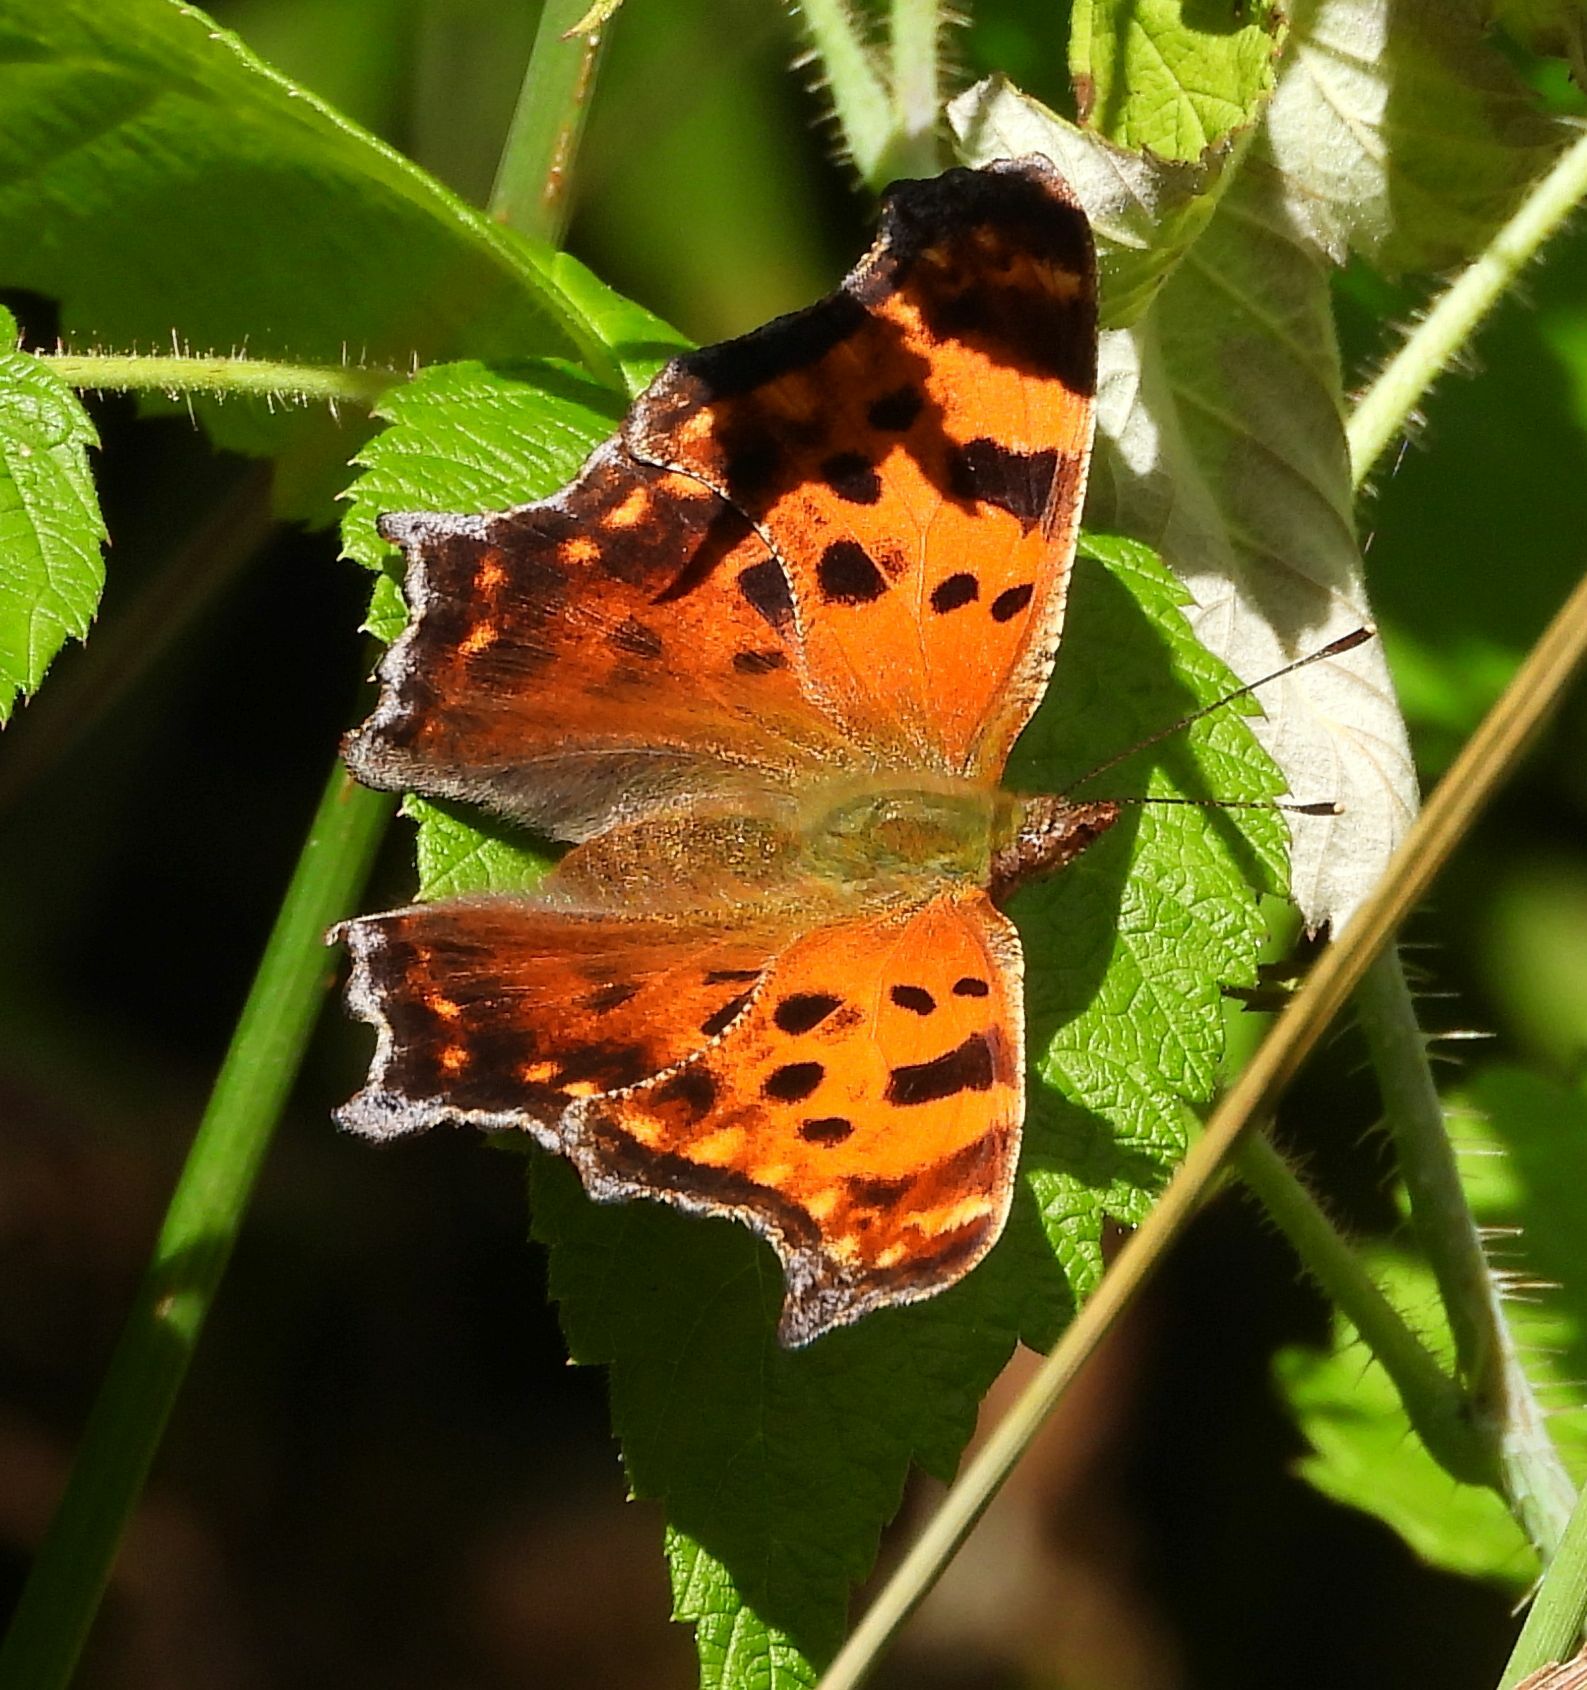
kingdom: Animalia
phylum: Arthropoda
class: Insecta
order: Lepidoptera
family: Nymphalidae
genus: Polygonia
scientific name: Polygonia comma
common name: Eastern comma
